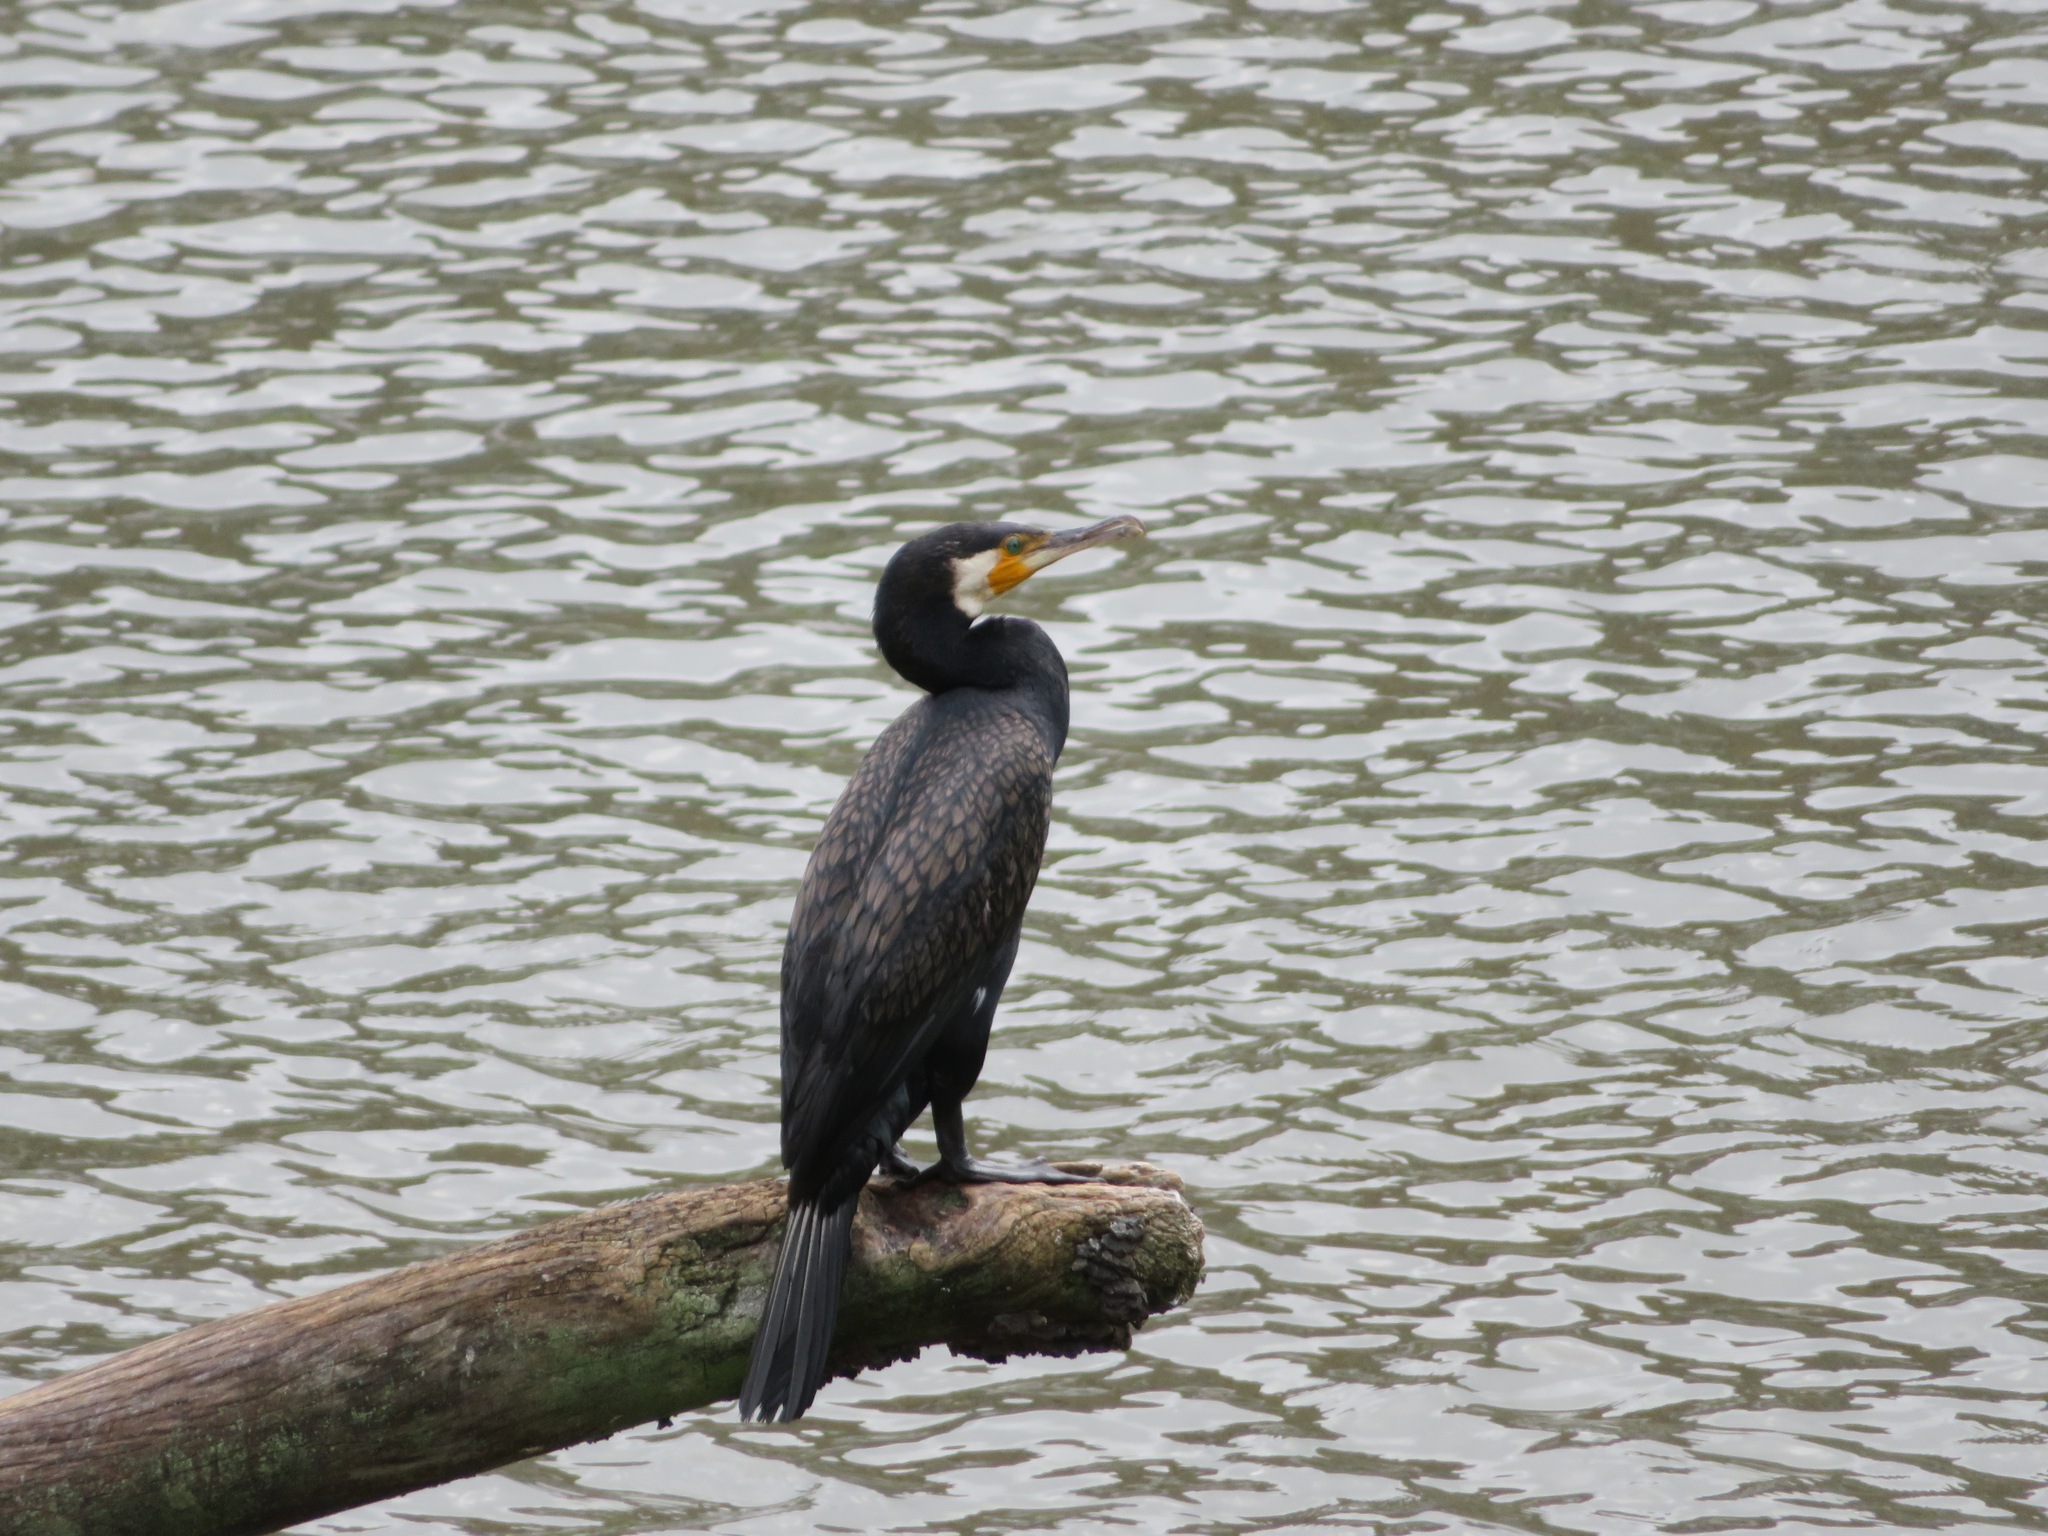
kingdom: Animalia
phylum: Chordata
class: Aves
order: Suliformes
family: Phalacrocoracidae
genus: Phalacrocorax
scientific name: Phalacrocorax carbo
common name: Great cormorant
